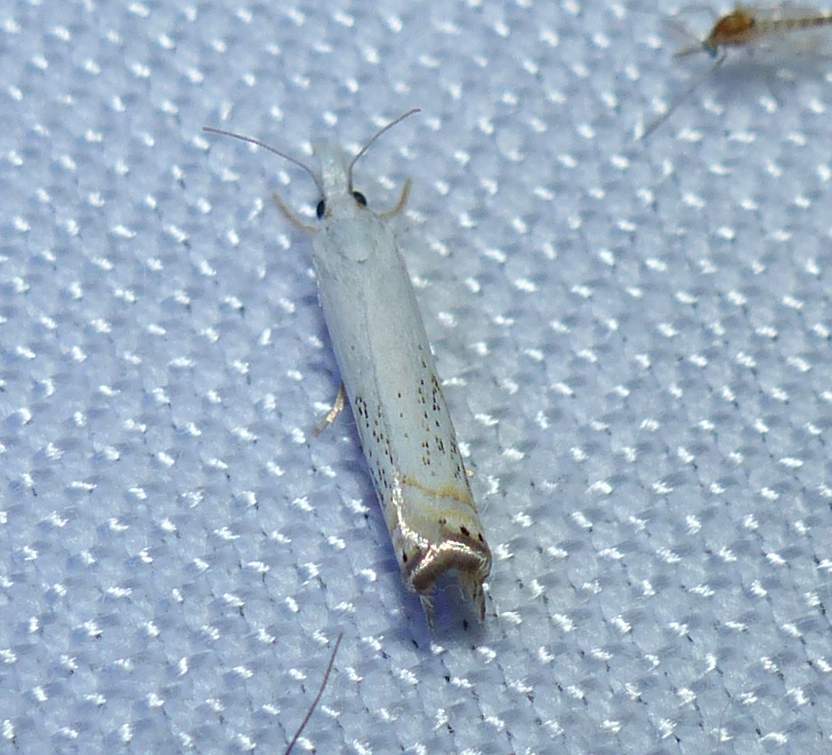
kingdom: Animalia
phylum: Arthropoda
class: Insecta
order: Lepidoptera
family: Crambidae
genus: Crambus
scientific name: Crambus albellus
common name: Small white grass-veneer
